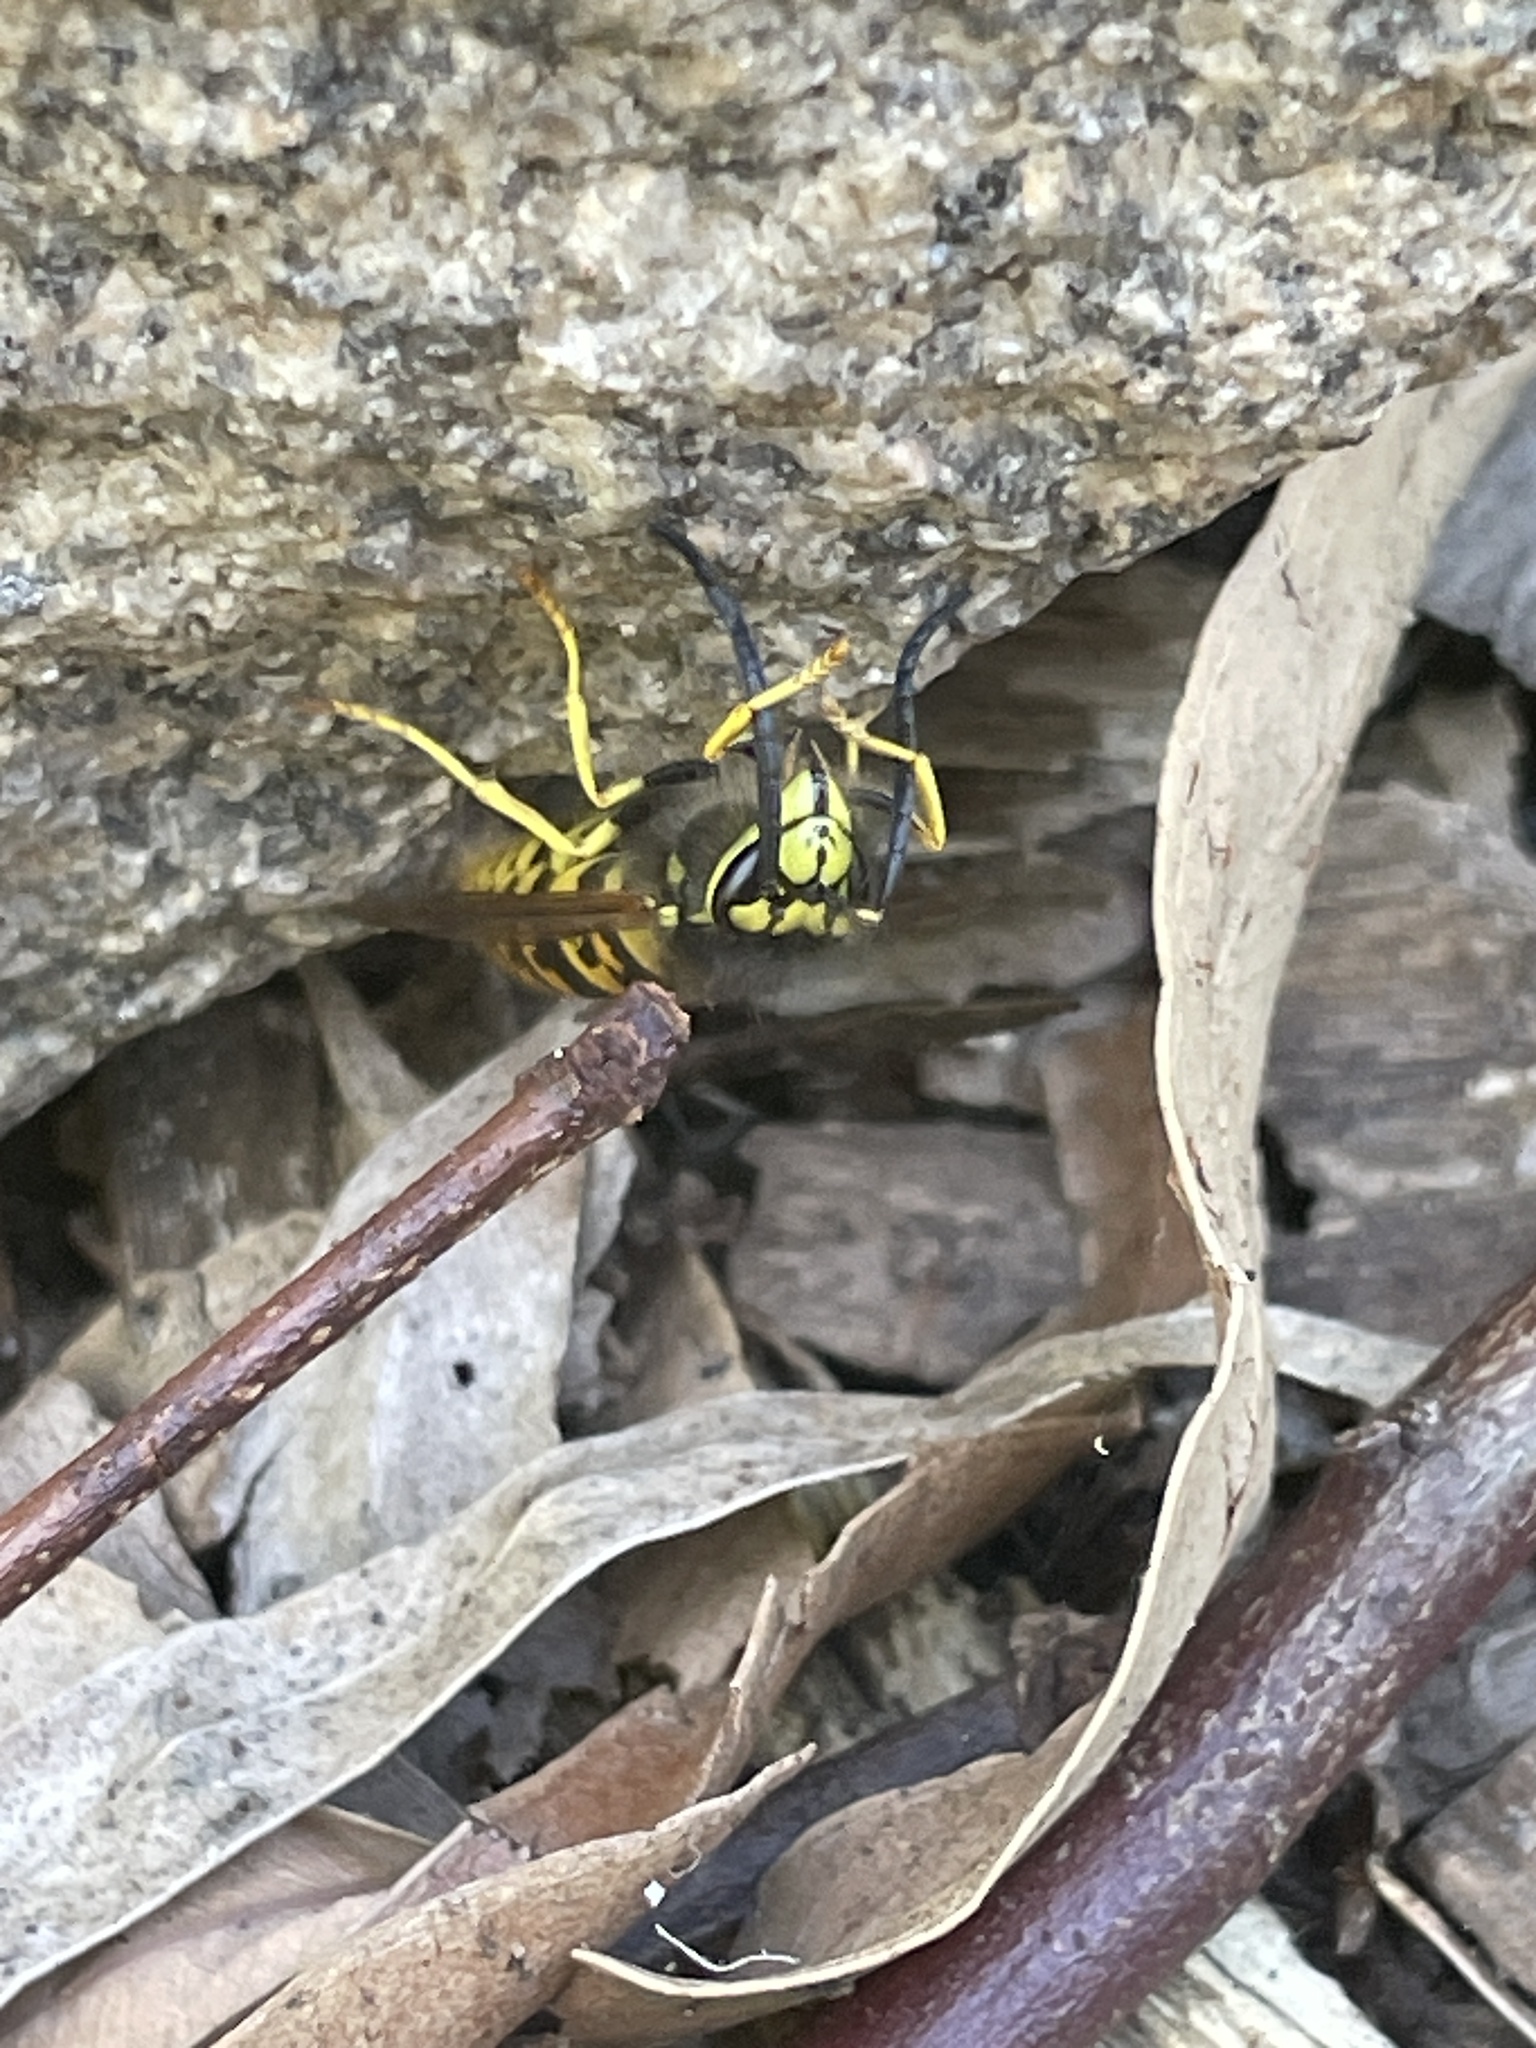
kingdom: Animalia
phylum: Arthropoda
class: Insecta
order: Hymenoptera
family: Vespidae
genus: Vespula
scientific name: Vespula germanica
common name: German wasp
